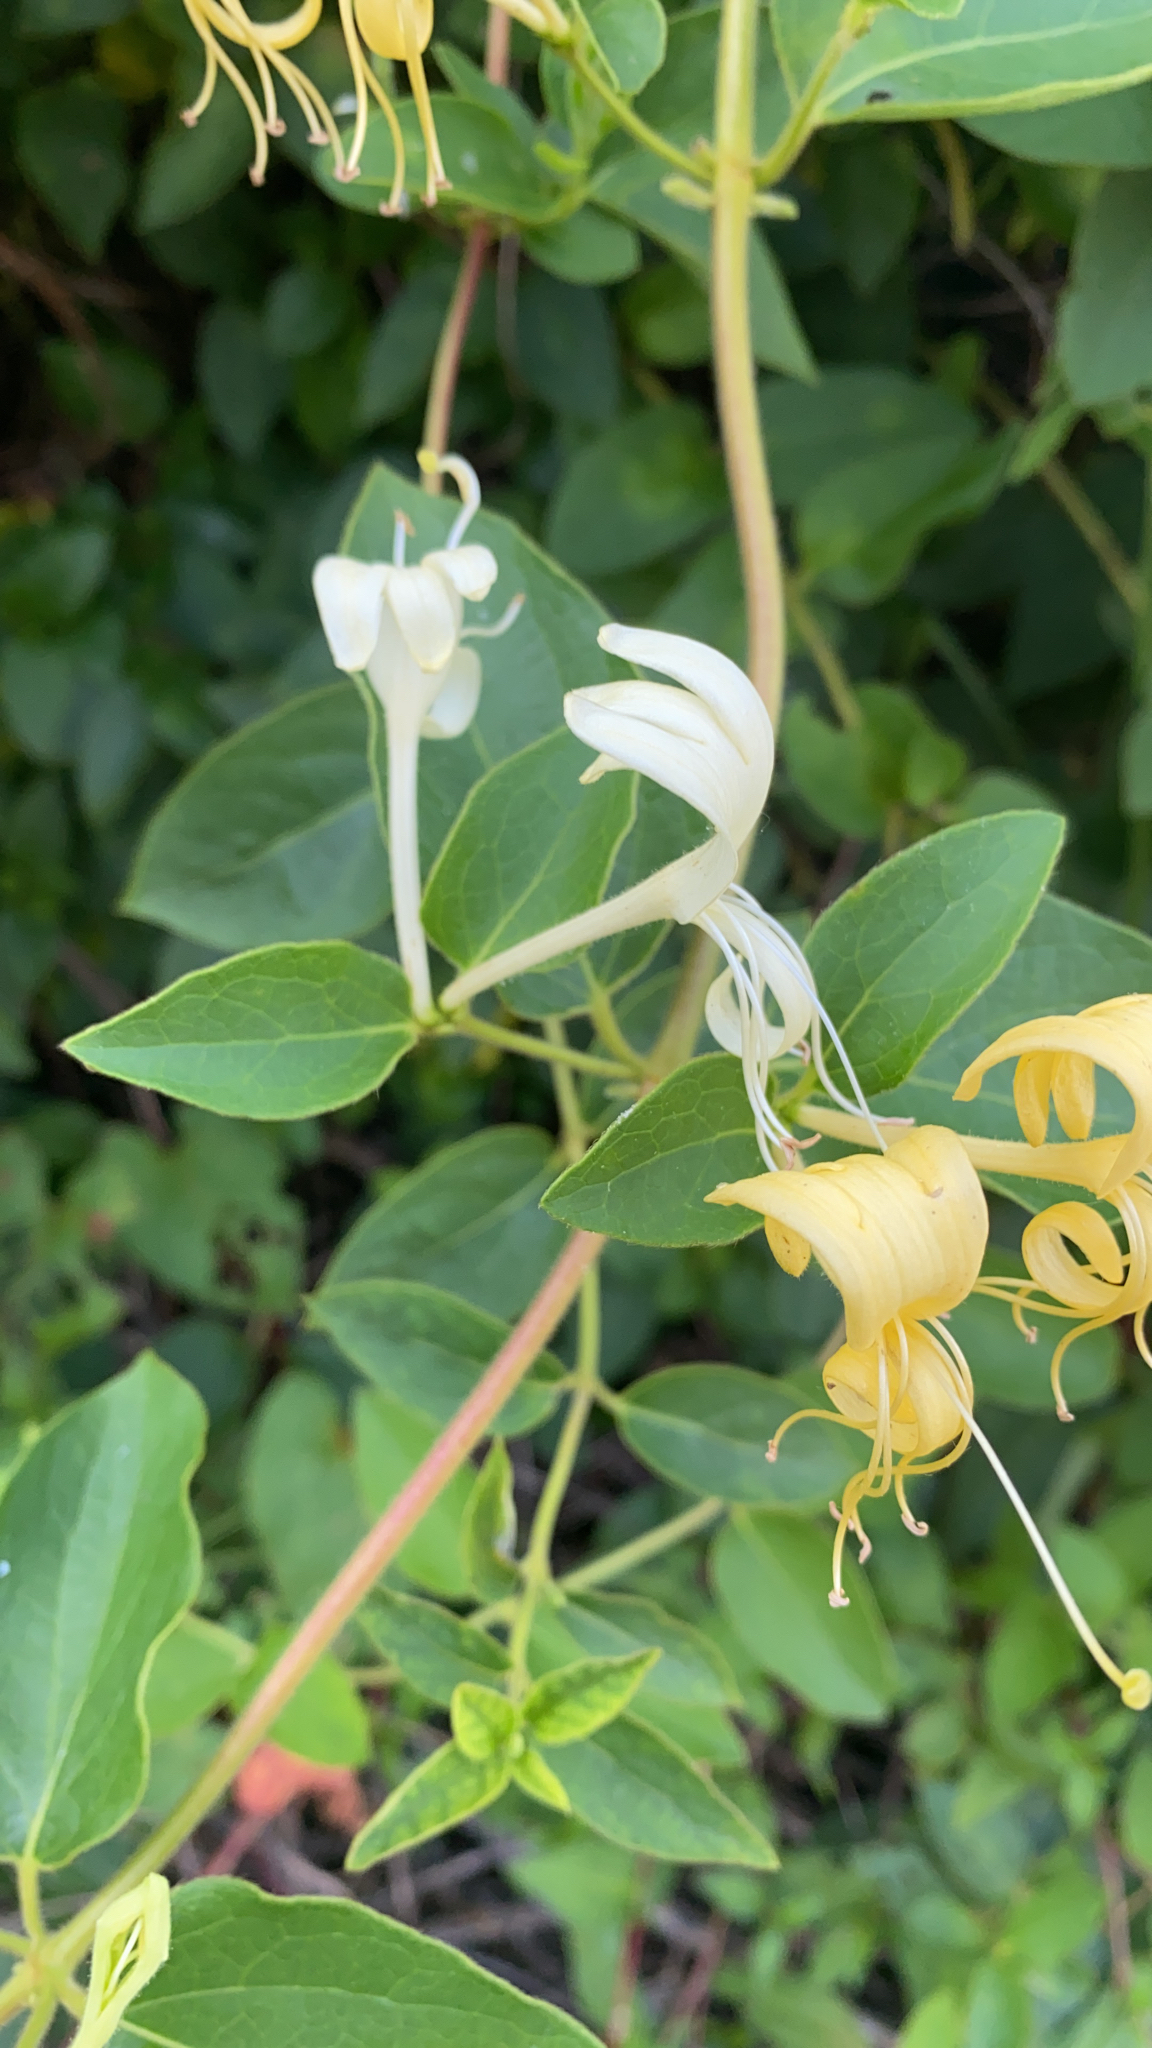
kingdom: Plantae
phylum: Tracheophyta
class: Magnoliopsida
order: Dipsacales
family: Caprifoliaceae
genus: Lonicera
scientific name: Lonicera japonica
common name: Japanese honeysuckle
